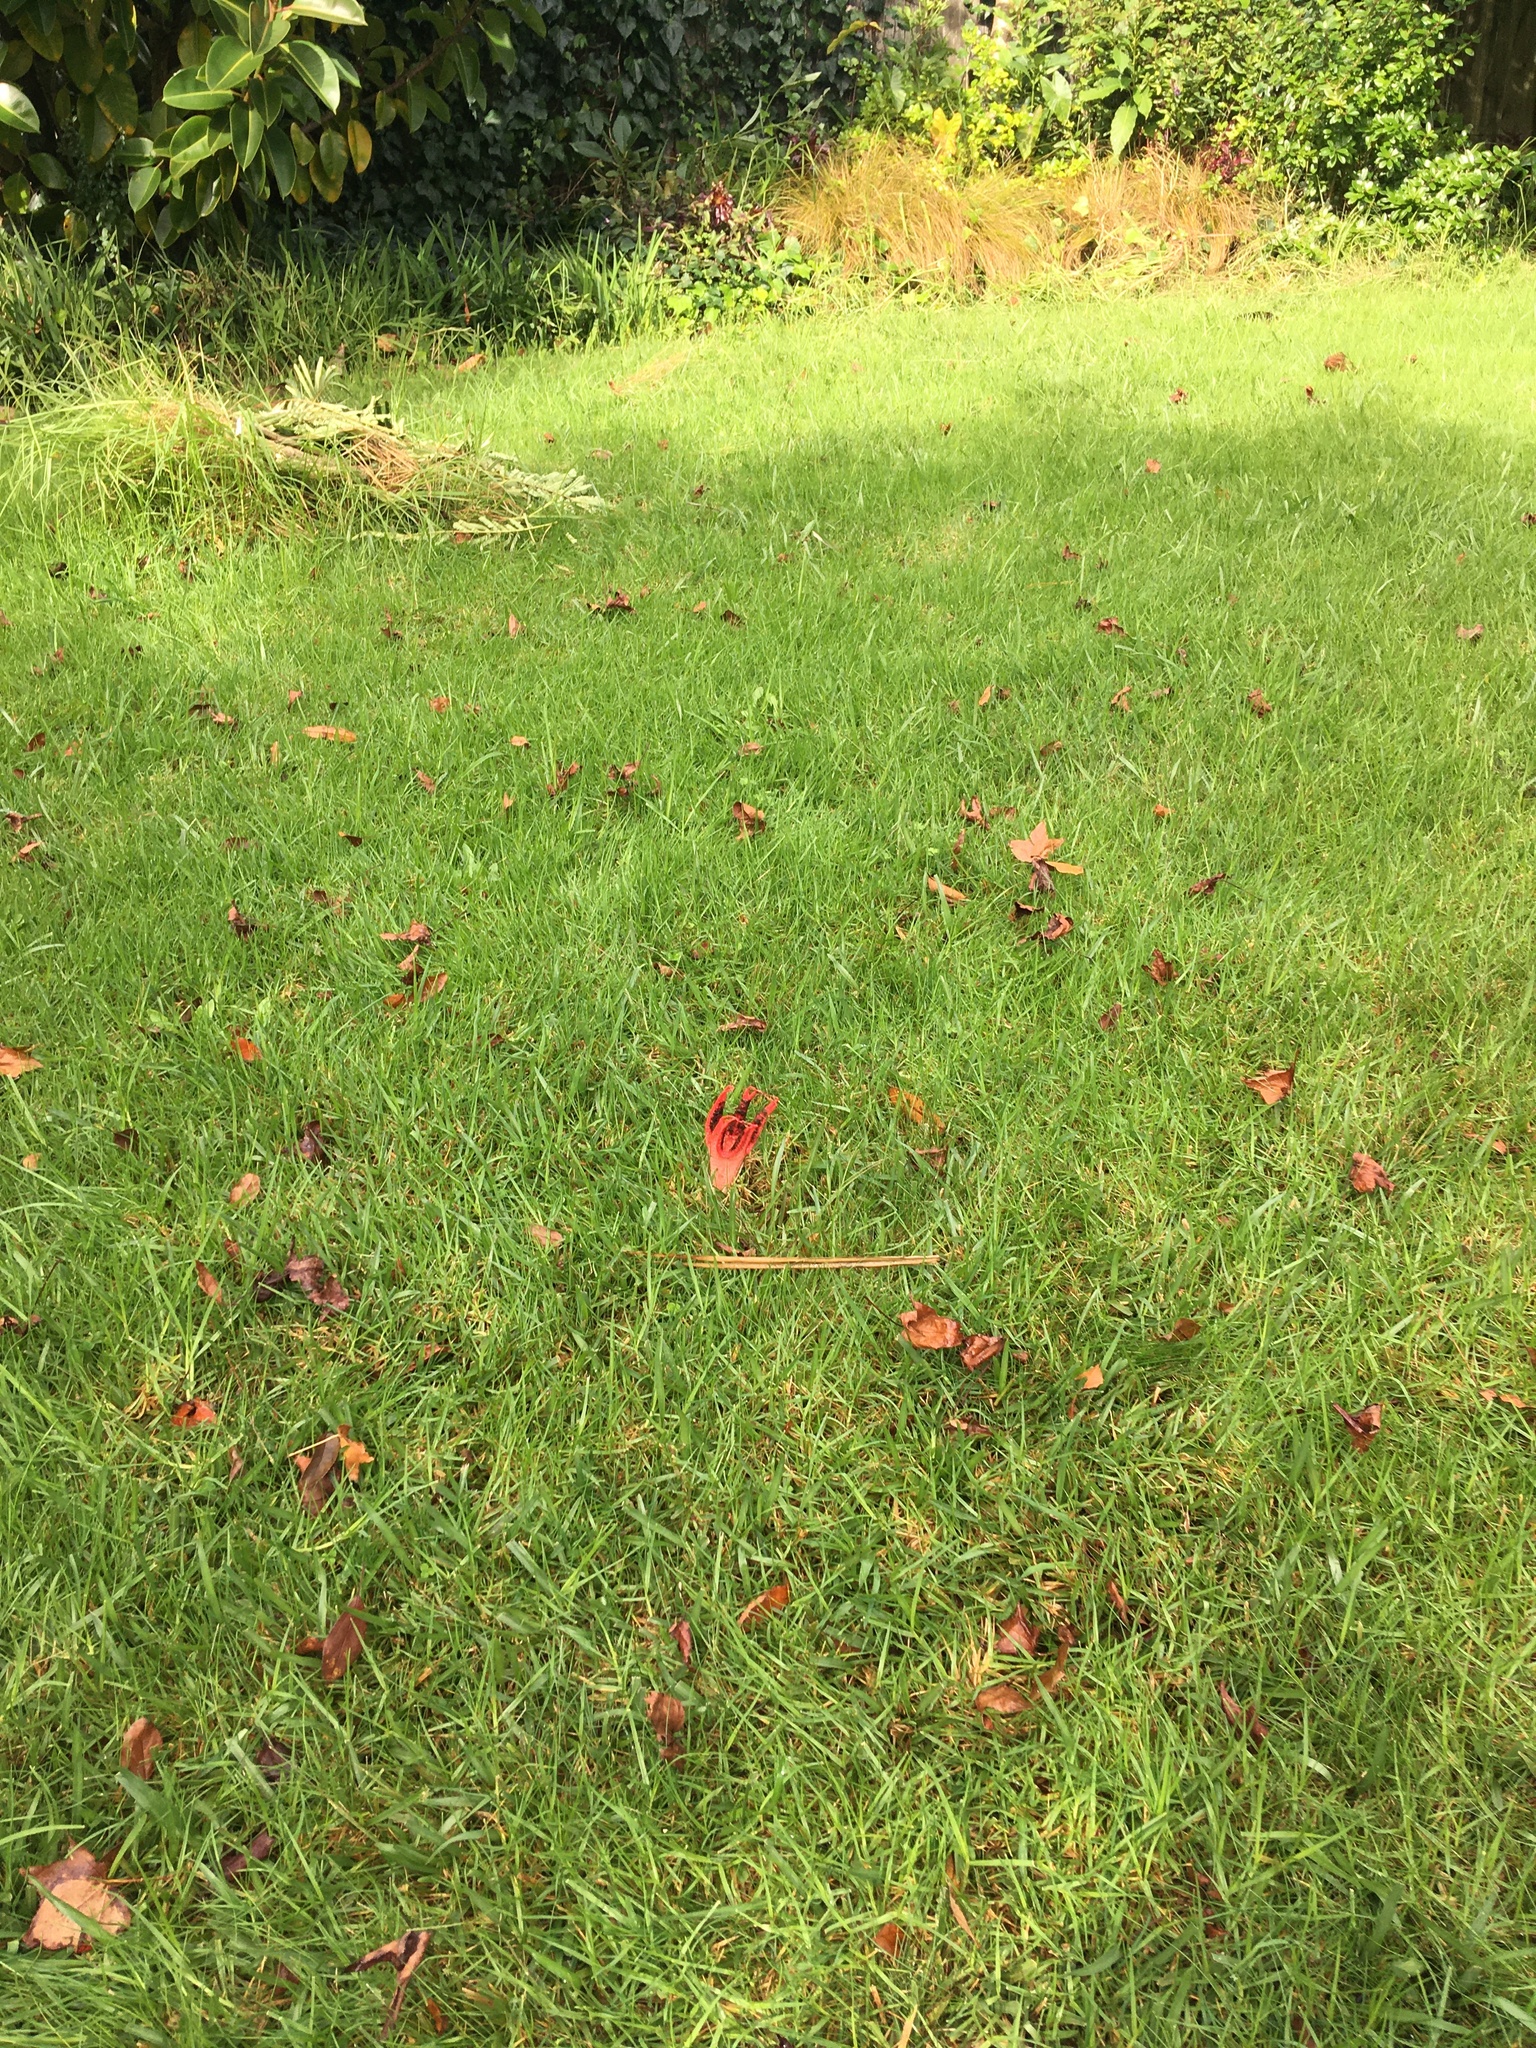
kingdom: Fungi
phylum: Basidiomycota
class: Agaricomycetes
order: Phallales
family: Phallaceae
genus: Clathrus
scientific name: Clathrus archeri
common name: Devil's fingers
